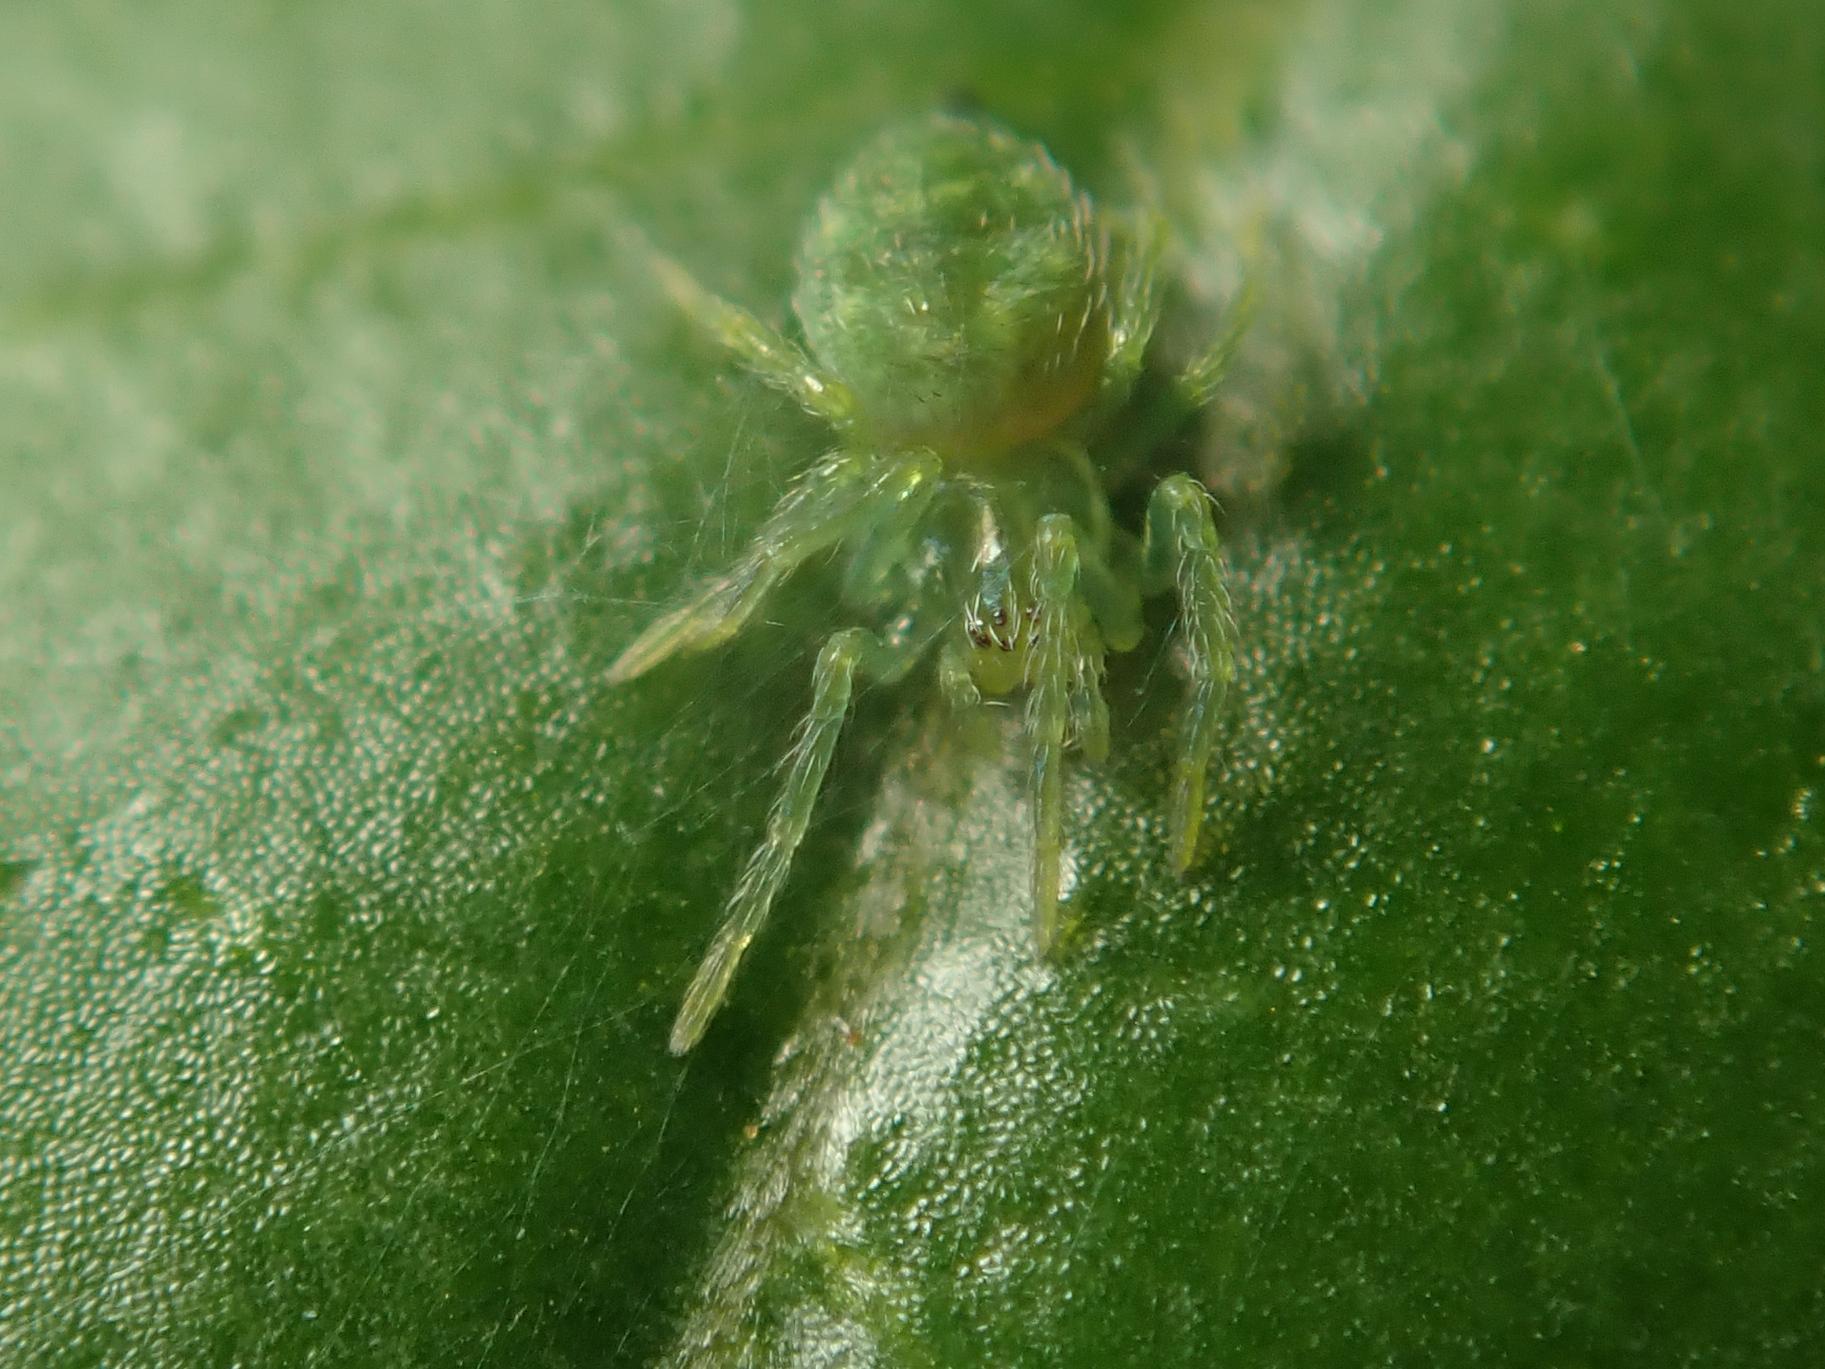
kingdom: Animalia
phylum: Arthropoda
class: Arachnida
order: Araneae
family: Dictynidae
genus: Nigma
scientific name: Nigma walckenaeri
